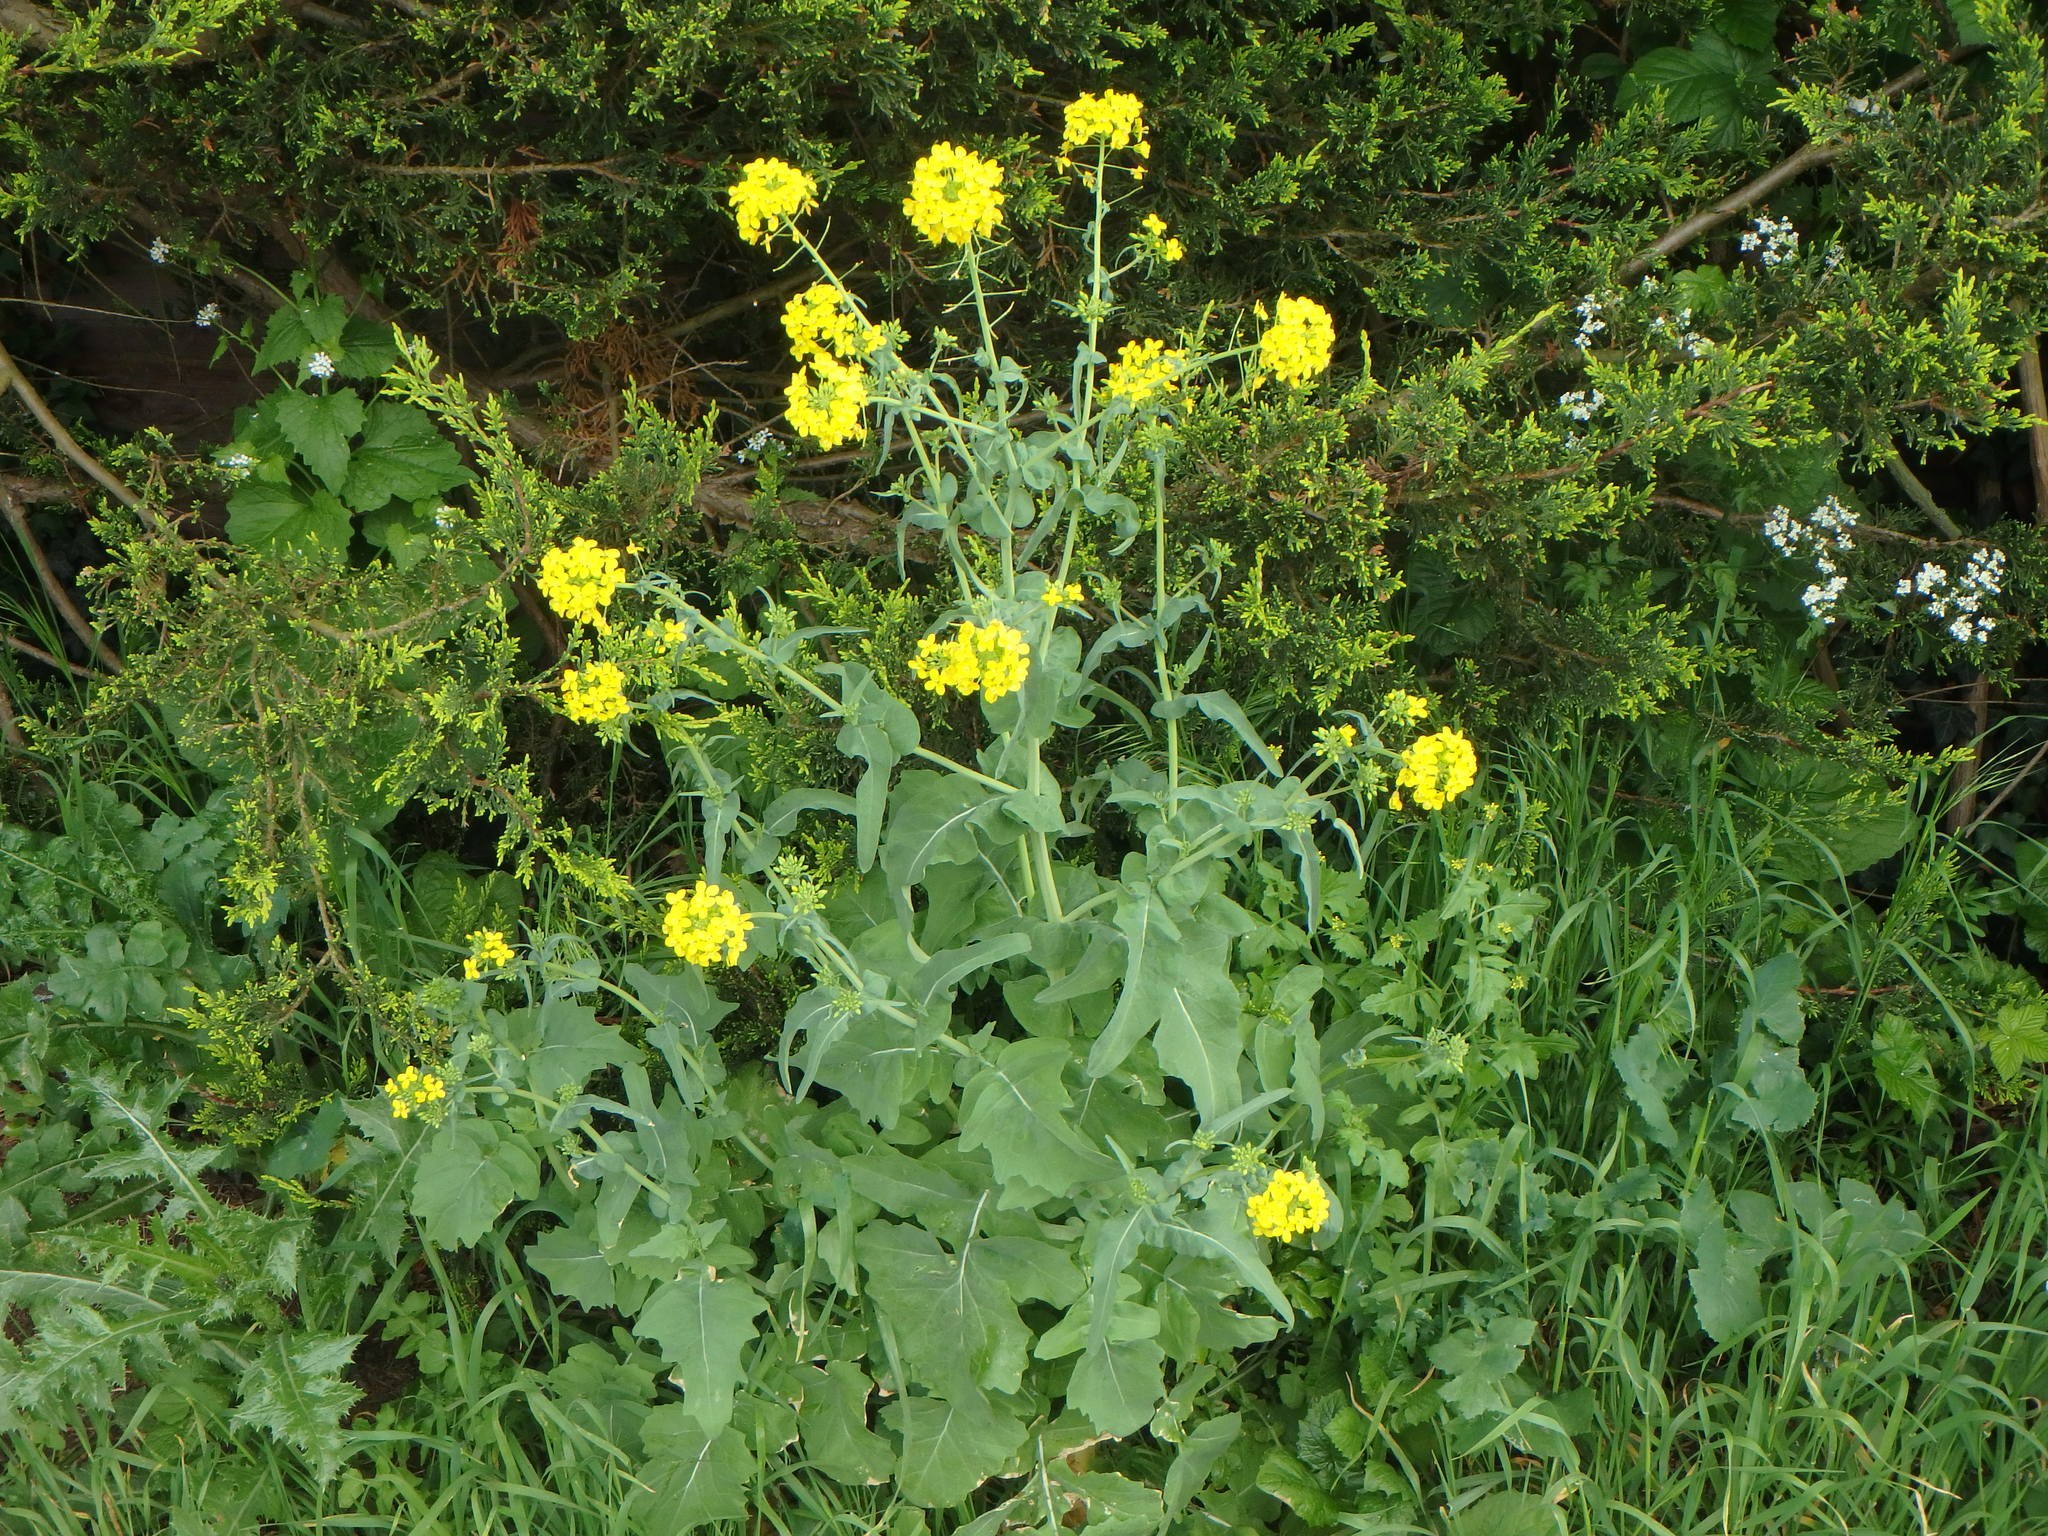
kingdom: Plantae
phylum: Tracheophyta
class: Magnoliopsida
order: Brassicales
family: Brassicaceae
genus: Brassica
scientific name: Brassica rapa
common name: Field mustard
